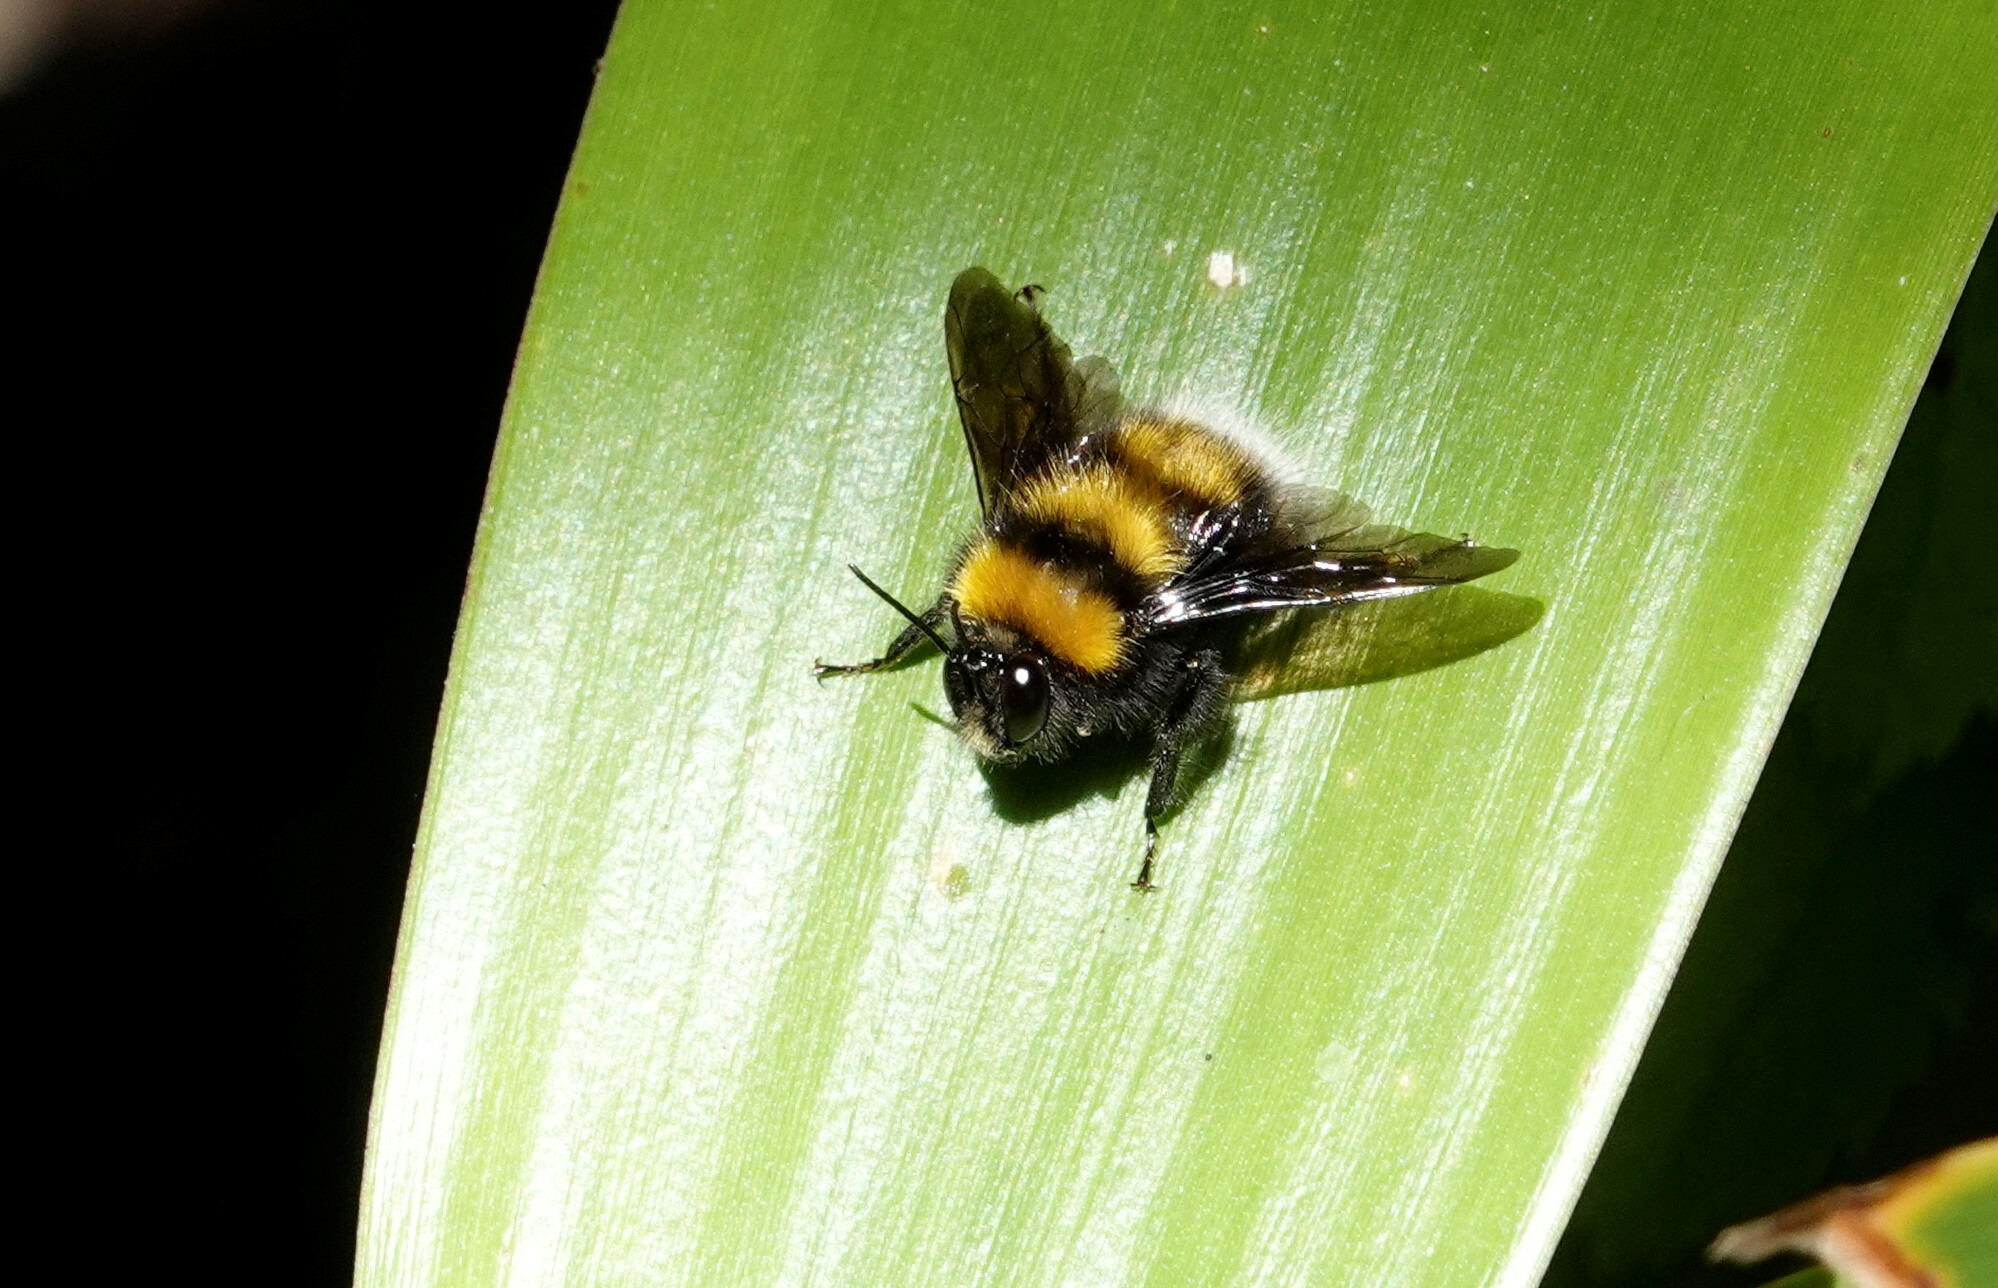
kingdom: Animalia
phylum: Arthropoda
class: Insecta
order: Hymenoptera
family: Apidae
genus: Bombus
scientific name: Bombus hortulanus
